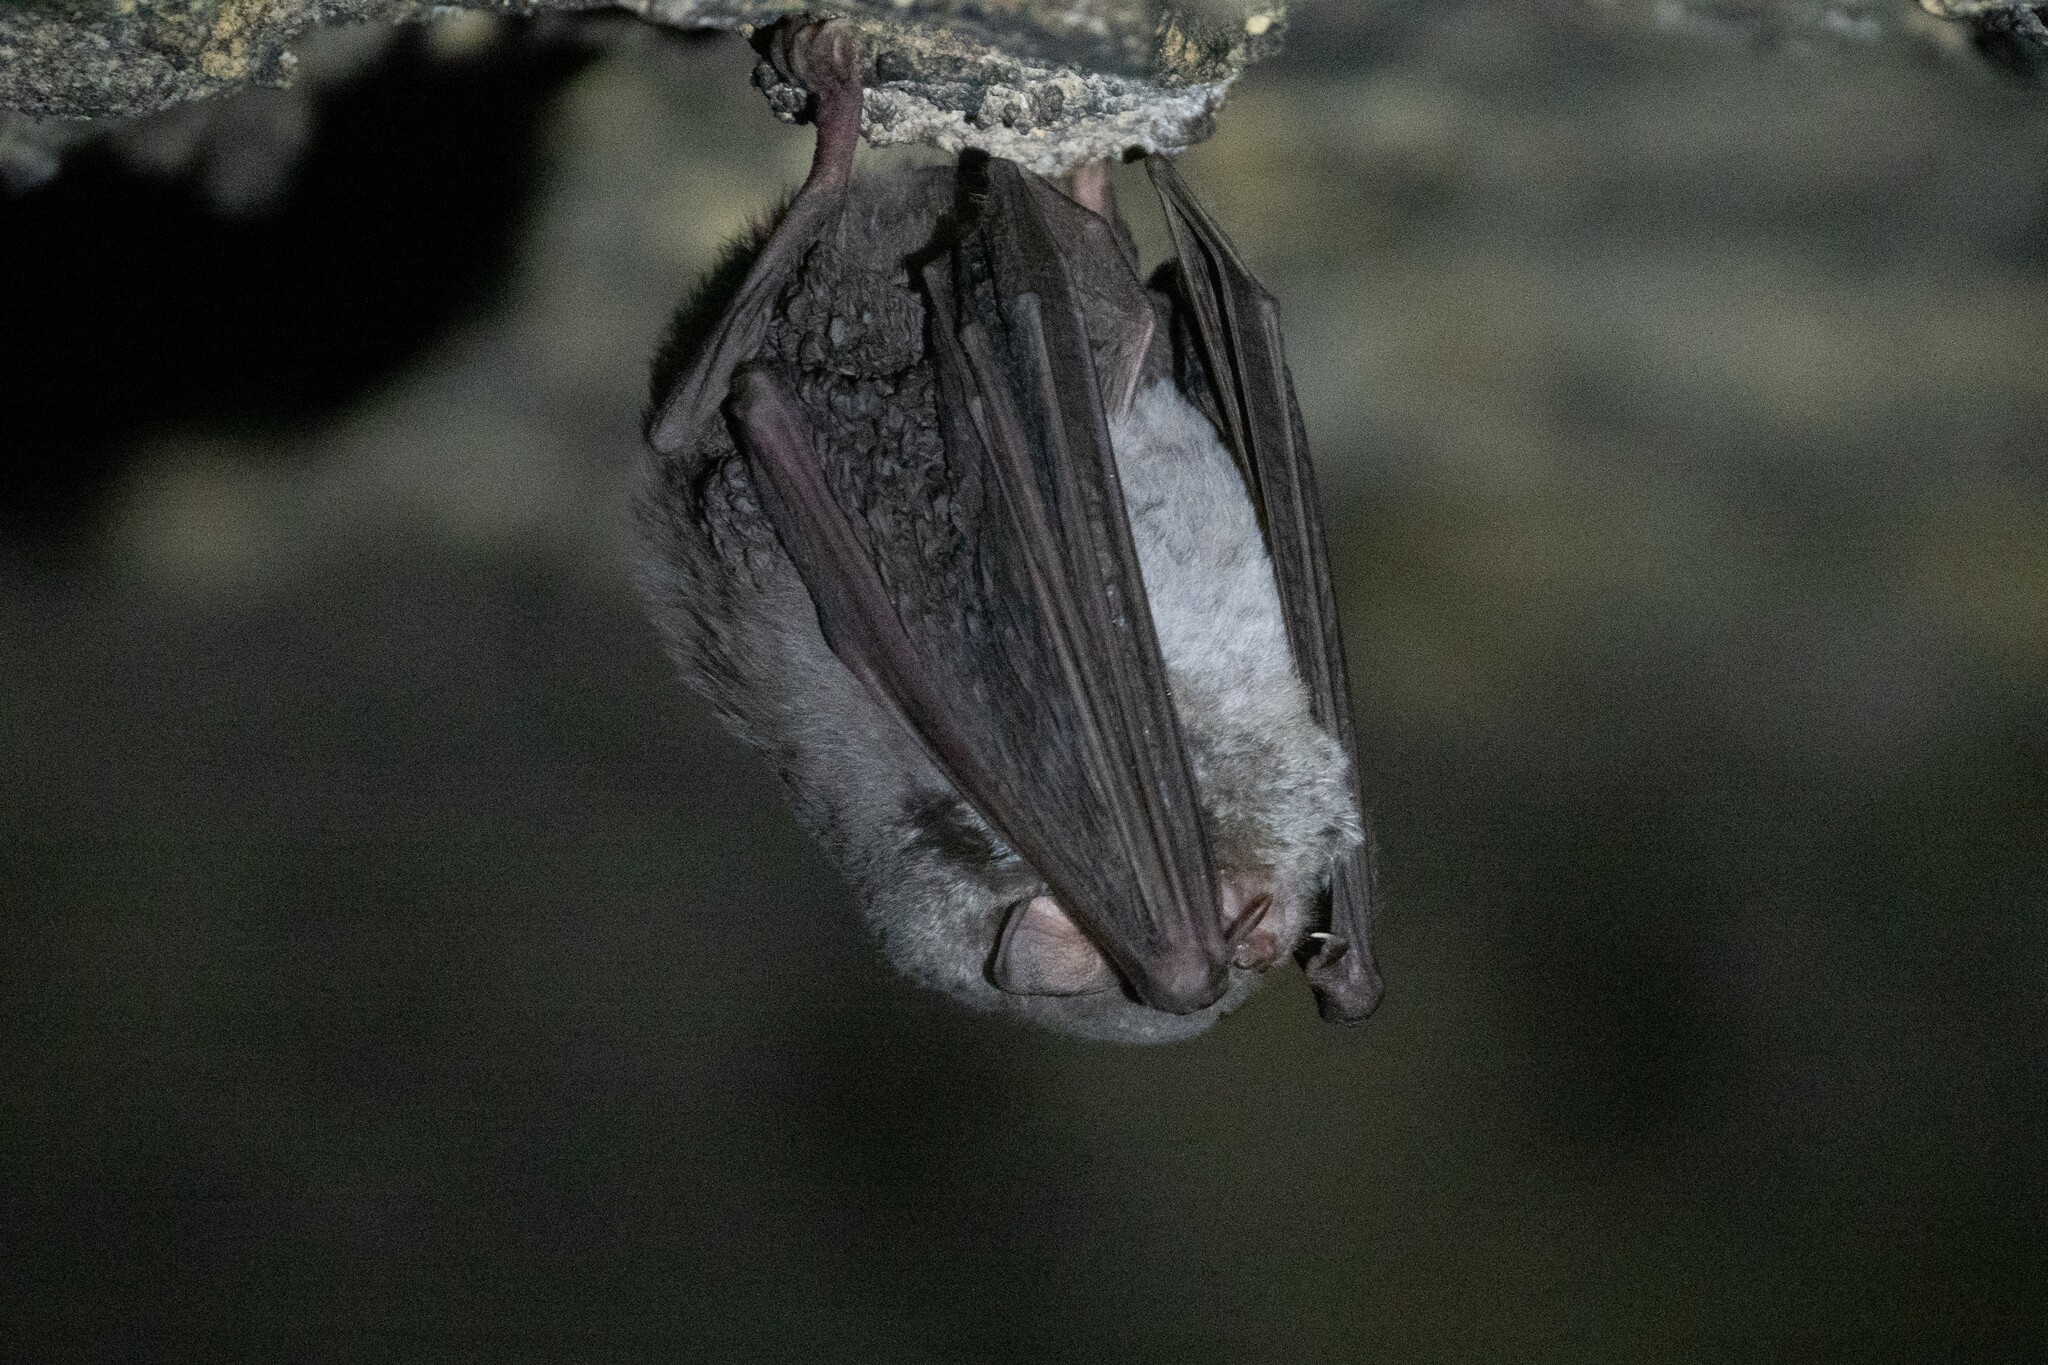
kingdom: Animalia
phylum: Chordata
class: Mammalia
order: Chiroptera
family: Miniopteridae
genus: Miniopterus
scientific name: Miniopterus schreibersii
